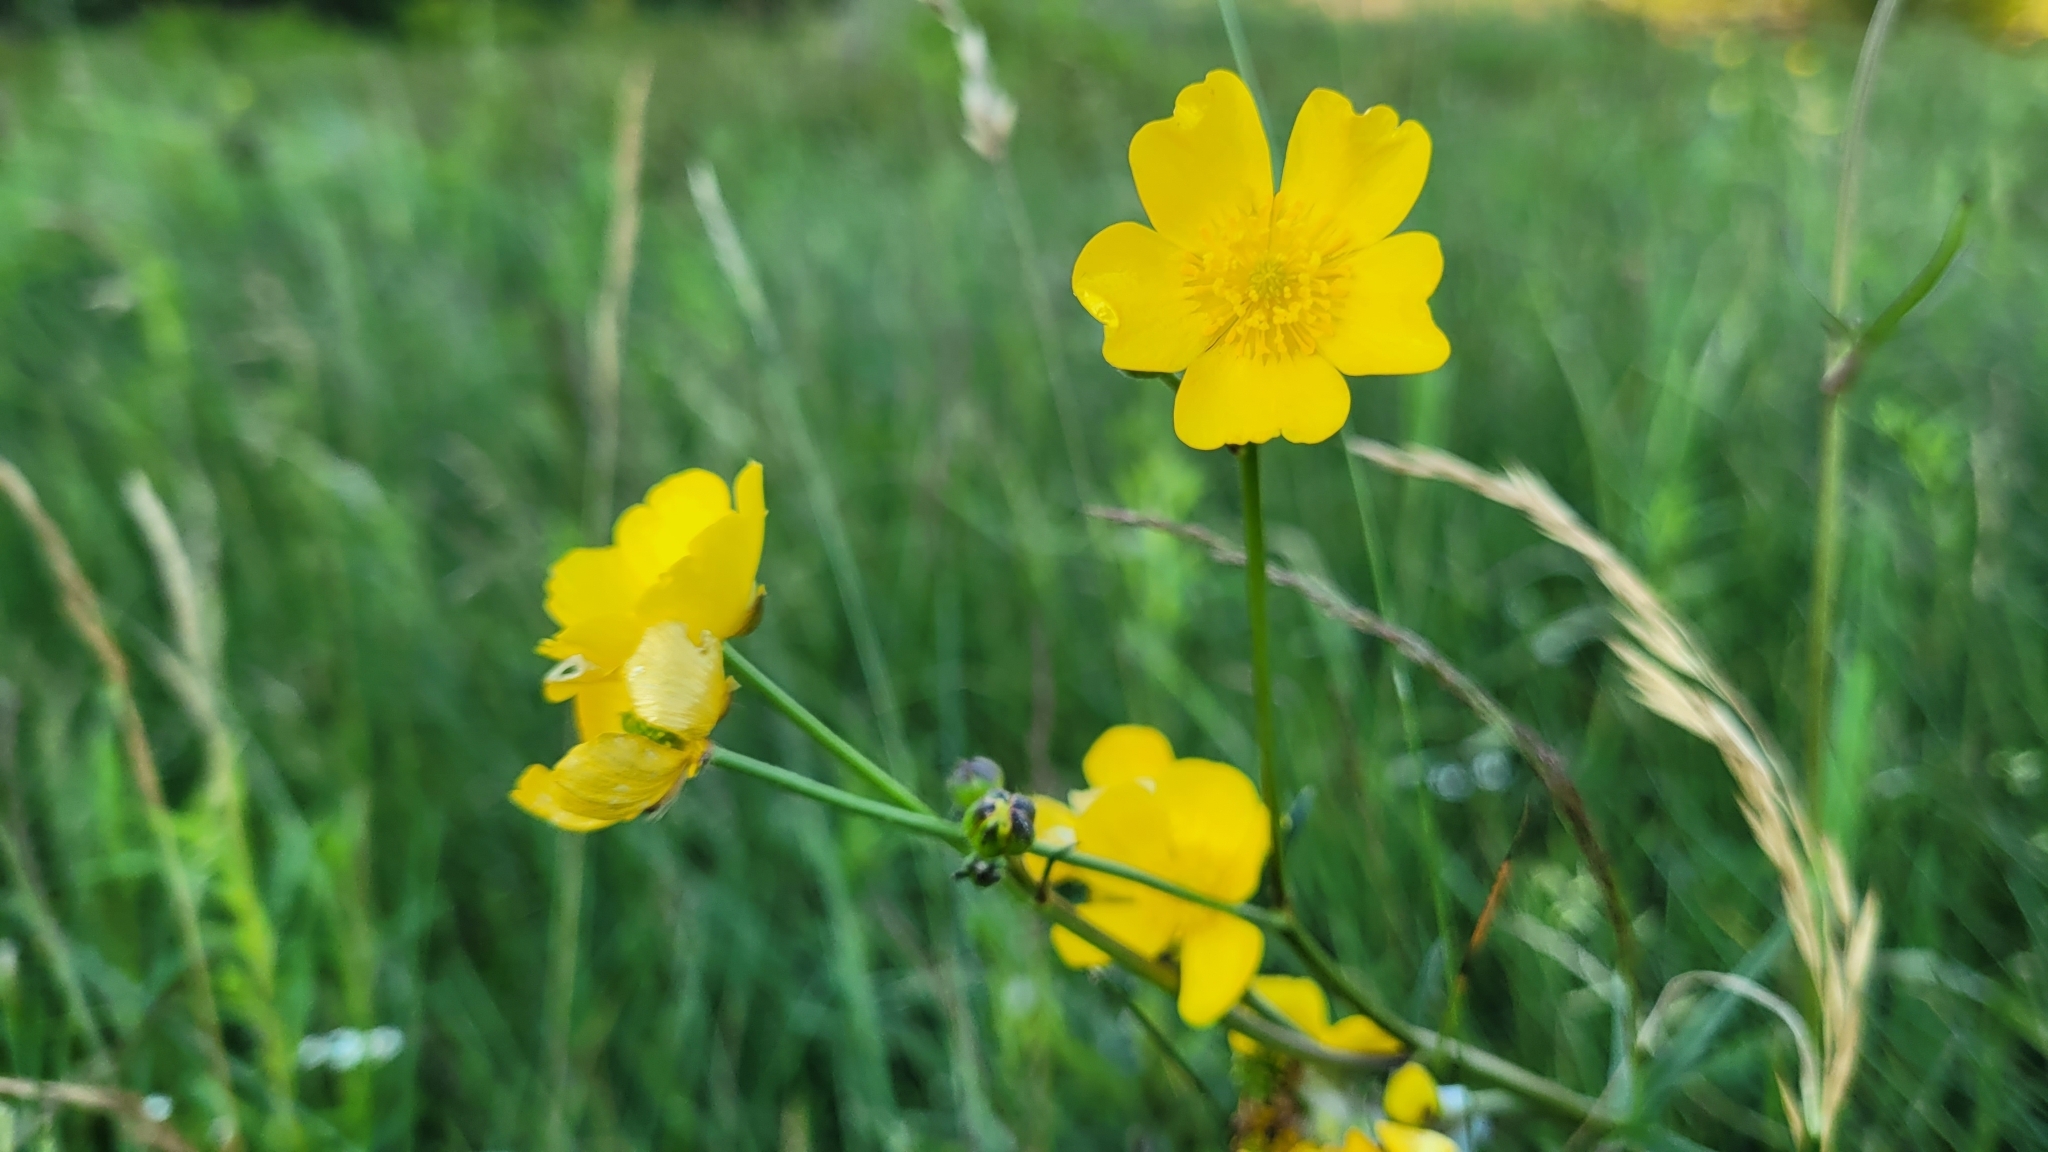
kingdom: Plantae
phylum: Tracheophyta
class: Magnoliopsida
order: Ranunculales
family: Ranunculaceae
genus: Ranunculus
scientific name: Ranunculus acris
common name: Meadow buttercup
